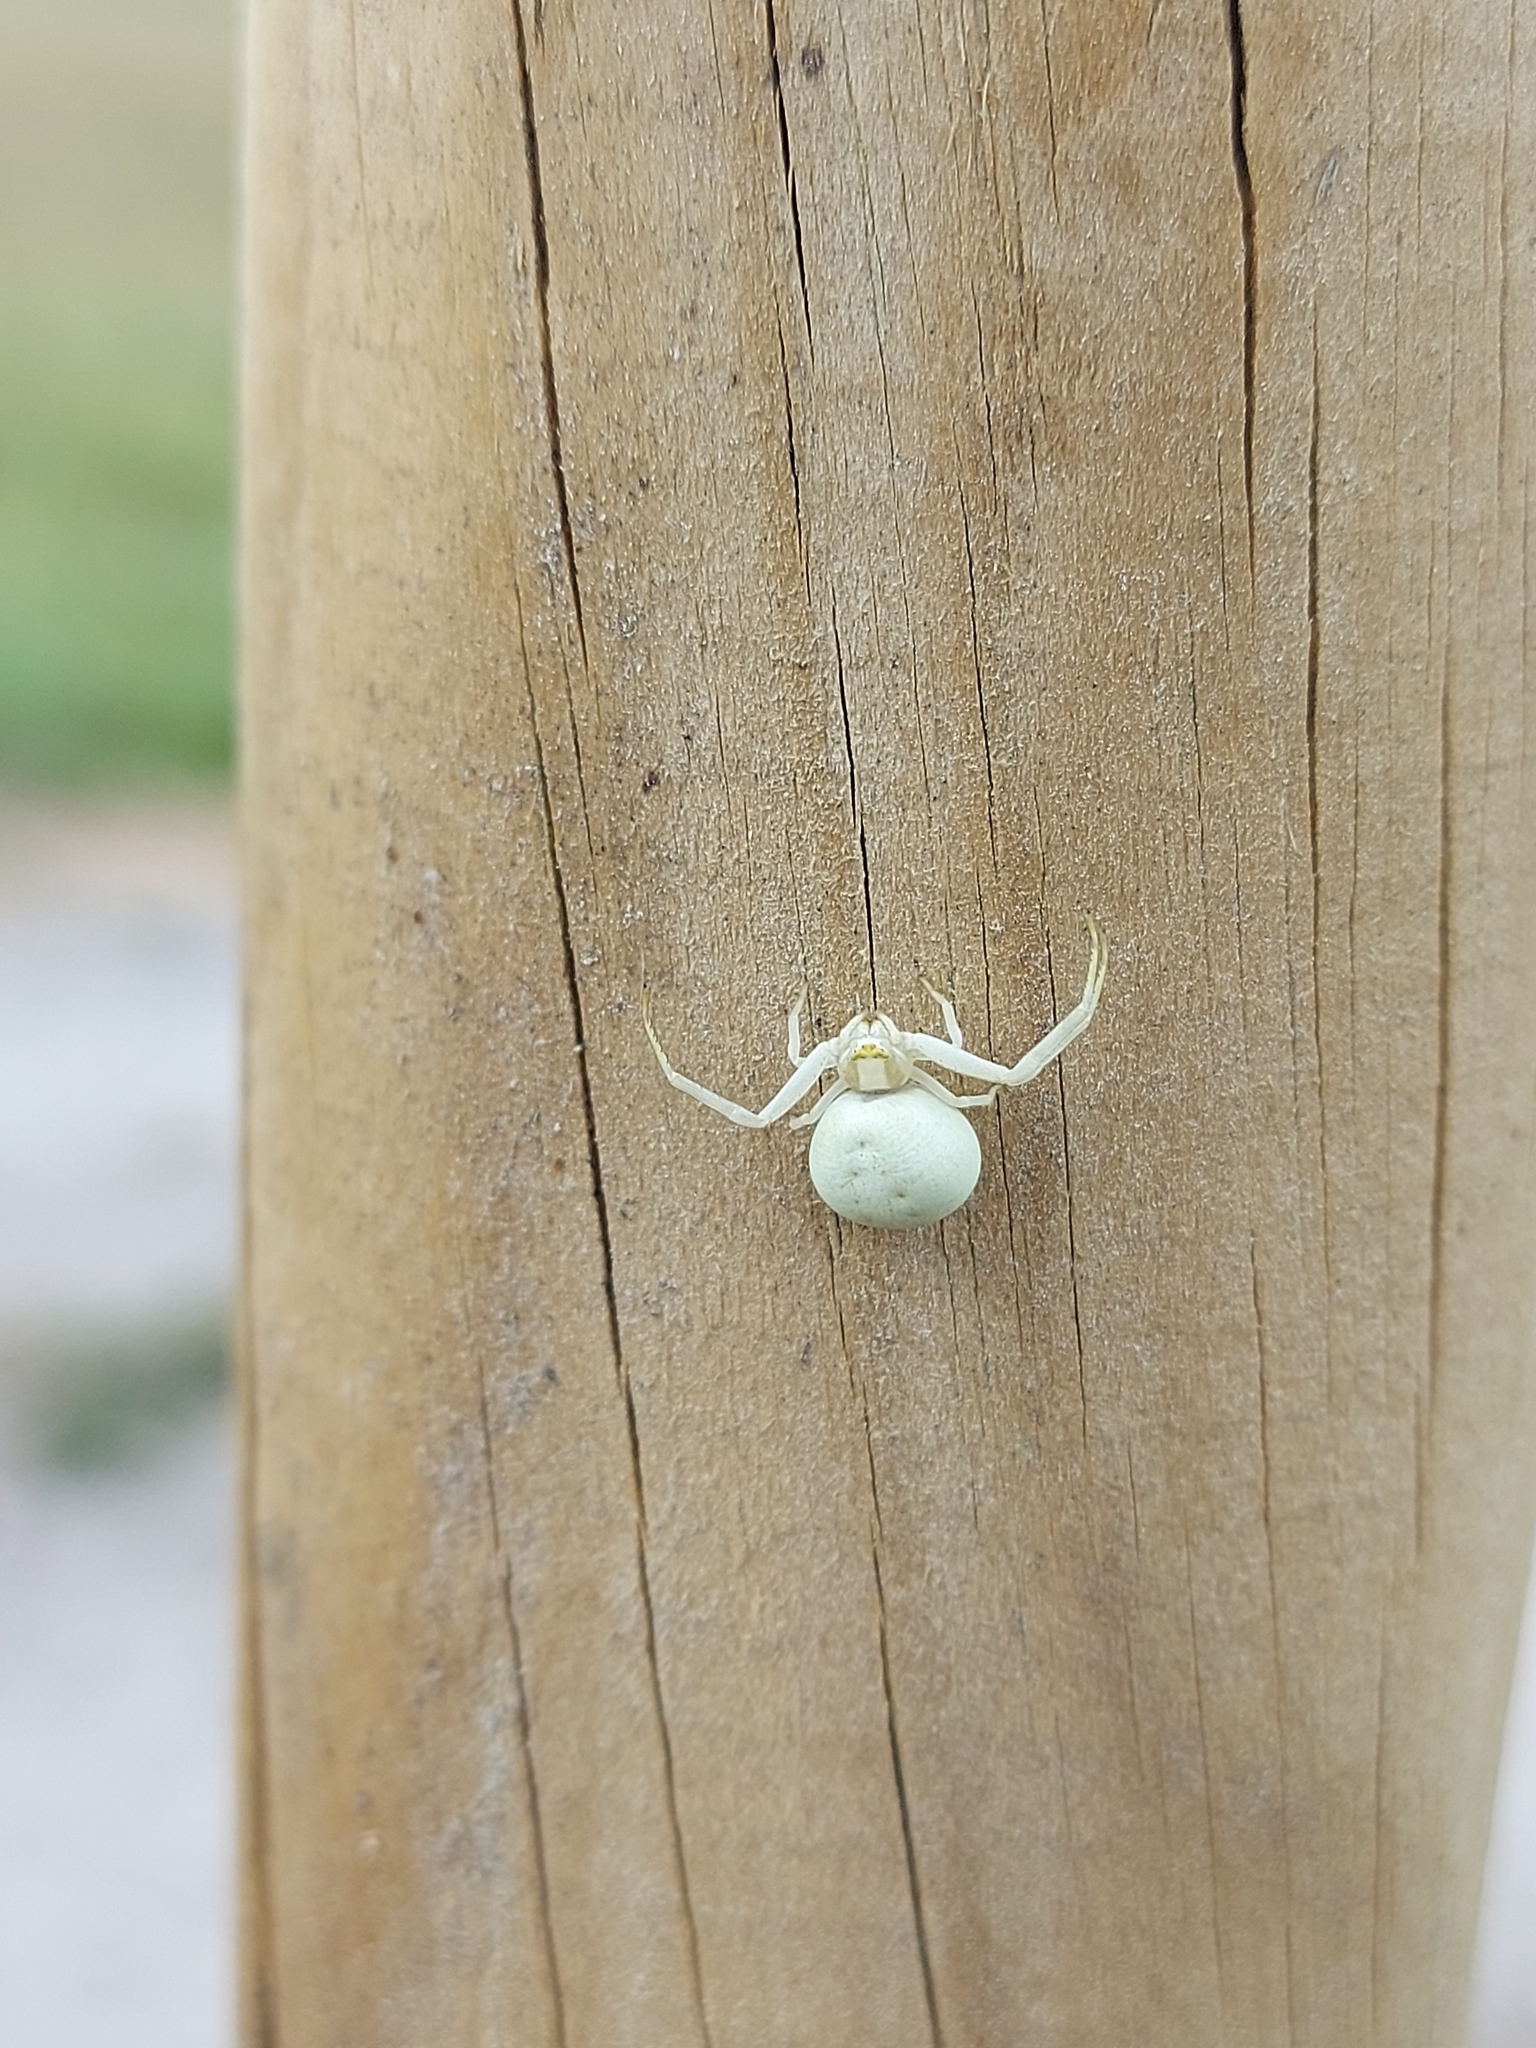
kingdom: Animalia
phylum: Arthropoda
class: Arachnida
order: Araneae
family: Thomisidae
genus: Misumena
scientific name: Misumena vatia
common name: Goldenrod crab spider
